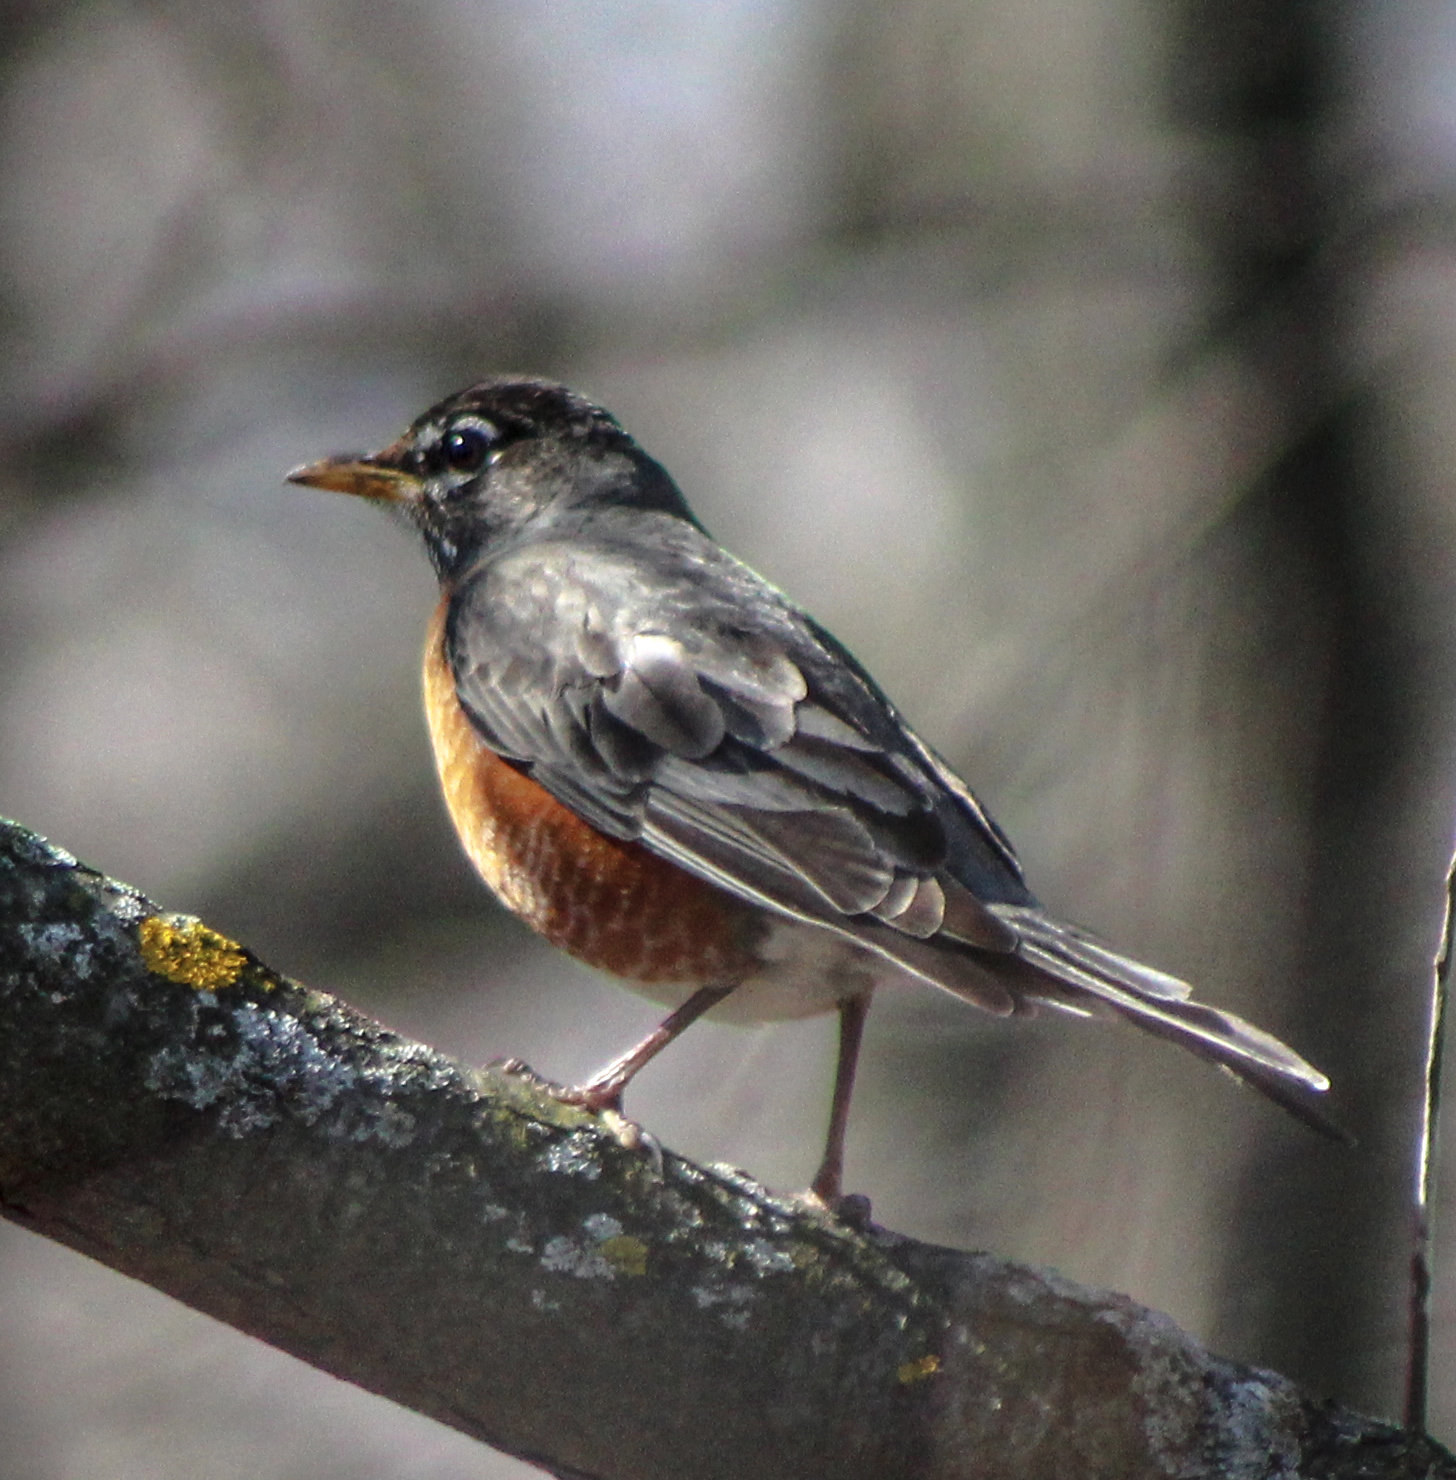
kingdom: Animalia
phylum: Chordata
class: Aves
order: Passeriformes
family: Turdidae
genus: Turdus
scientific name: Turdus migratorius
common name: American robin
